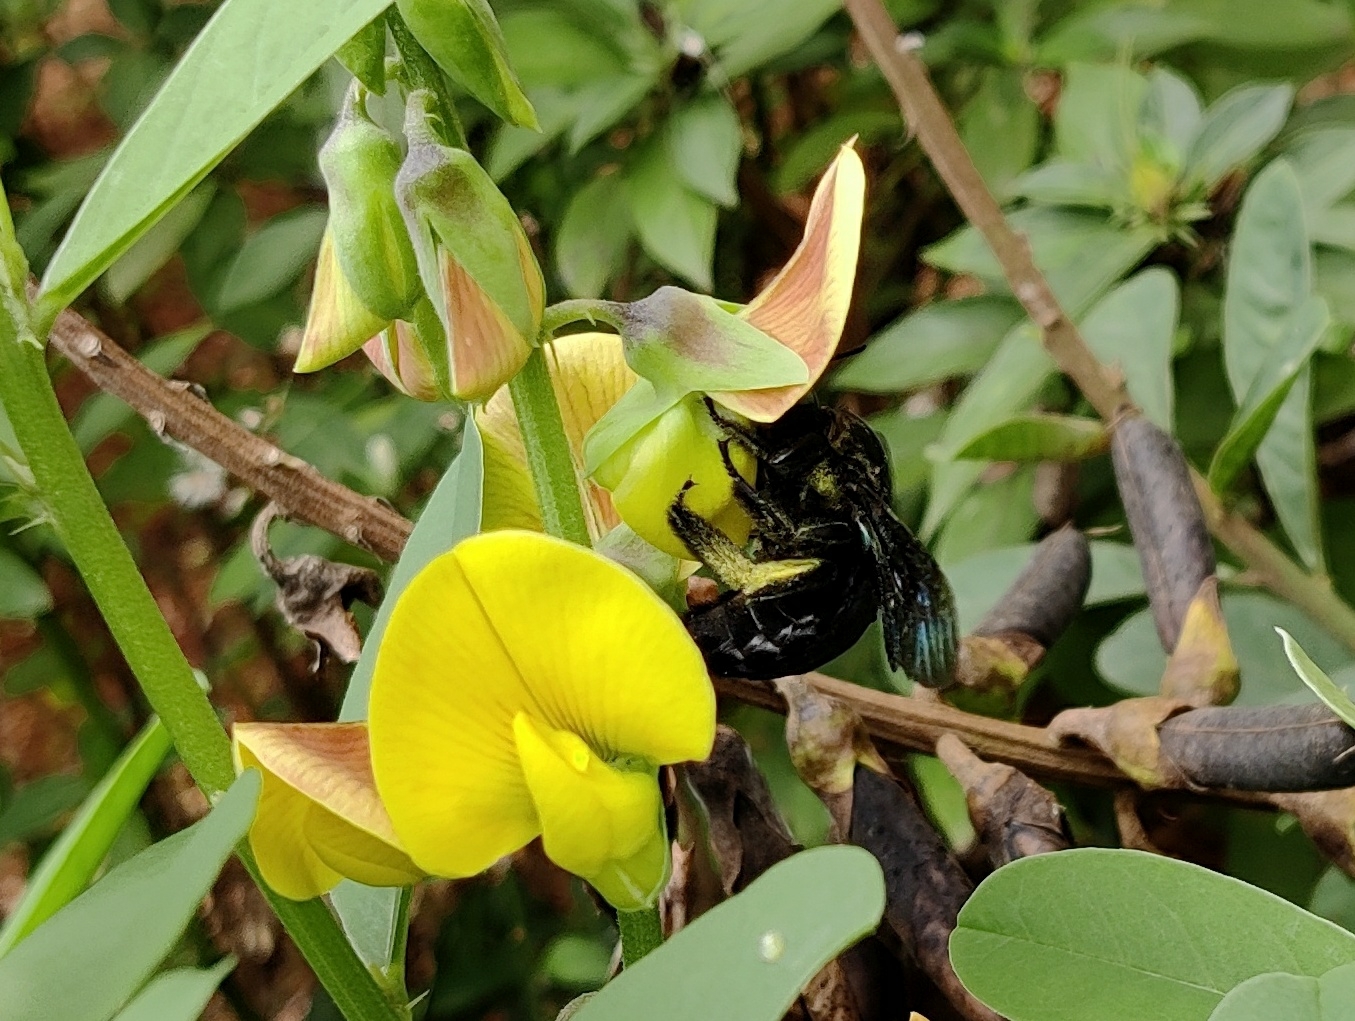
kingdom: Animalia
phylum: Arthropoda
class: Insecta
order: Hymenoptera
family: Apidae
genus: Xylocopa
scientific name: Xylocopa tenuiscapa
